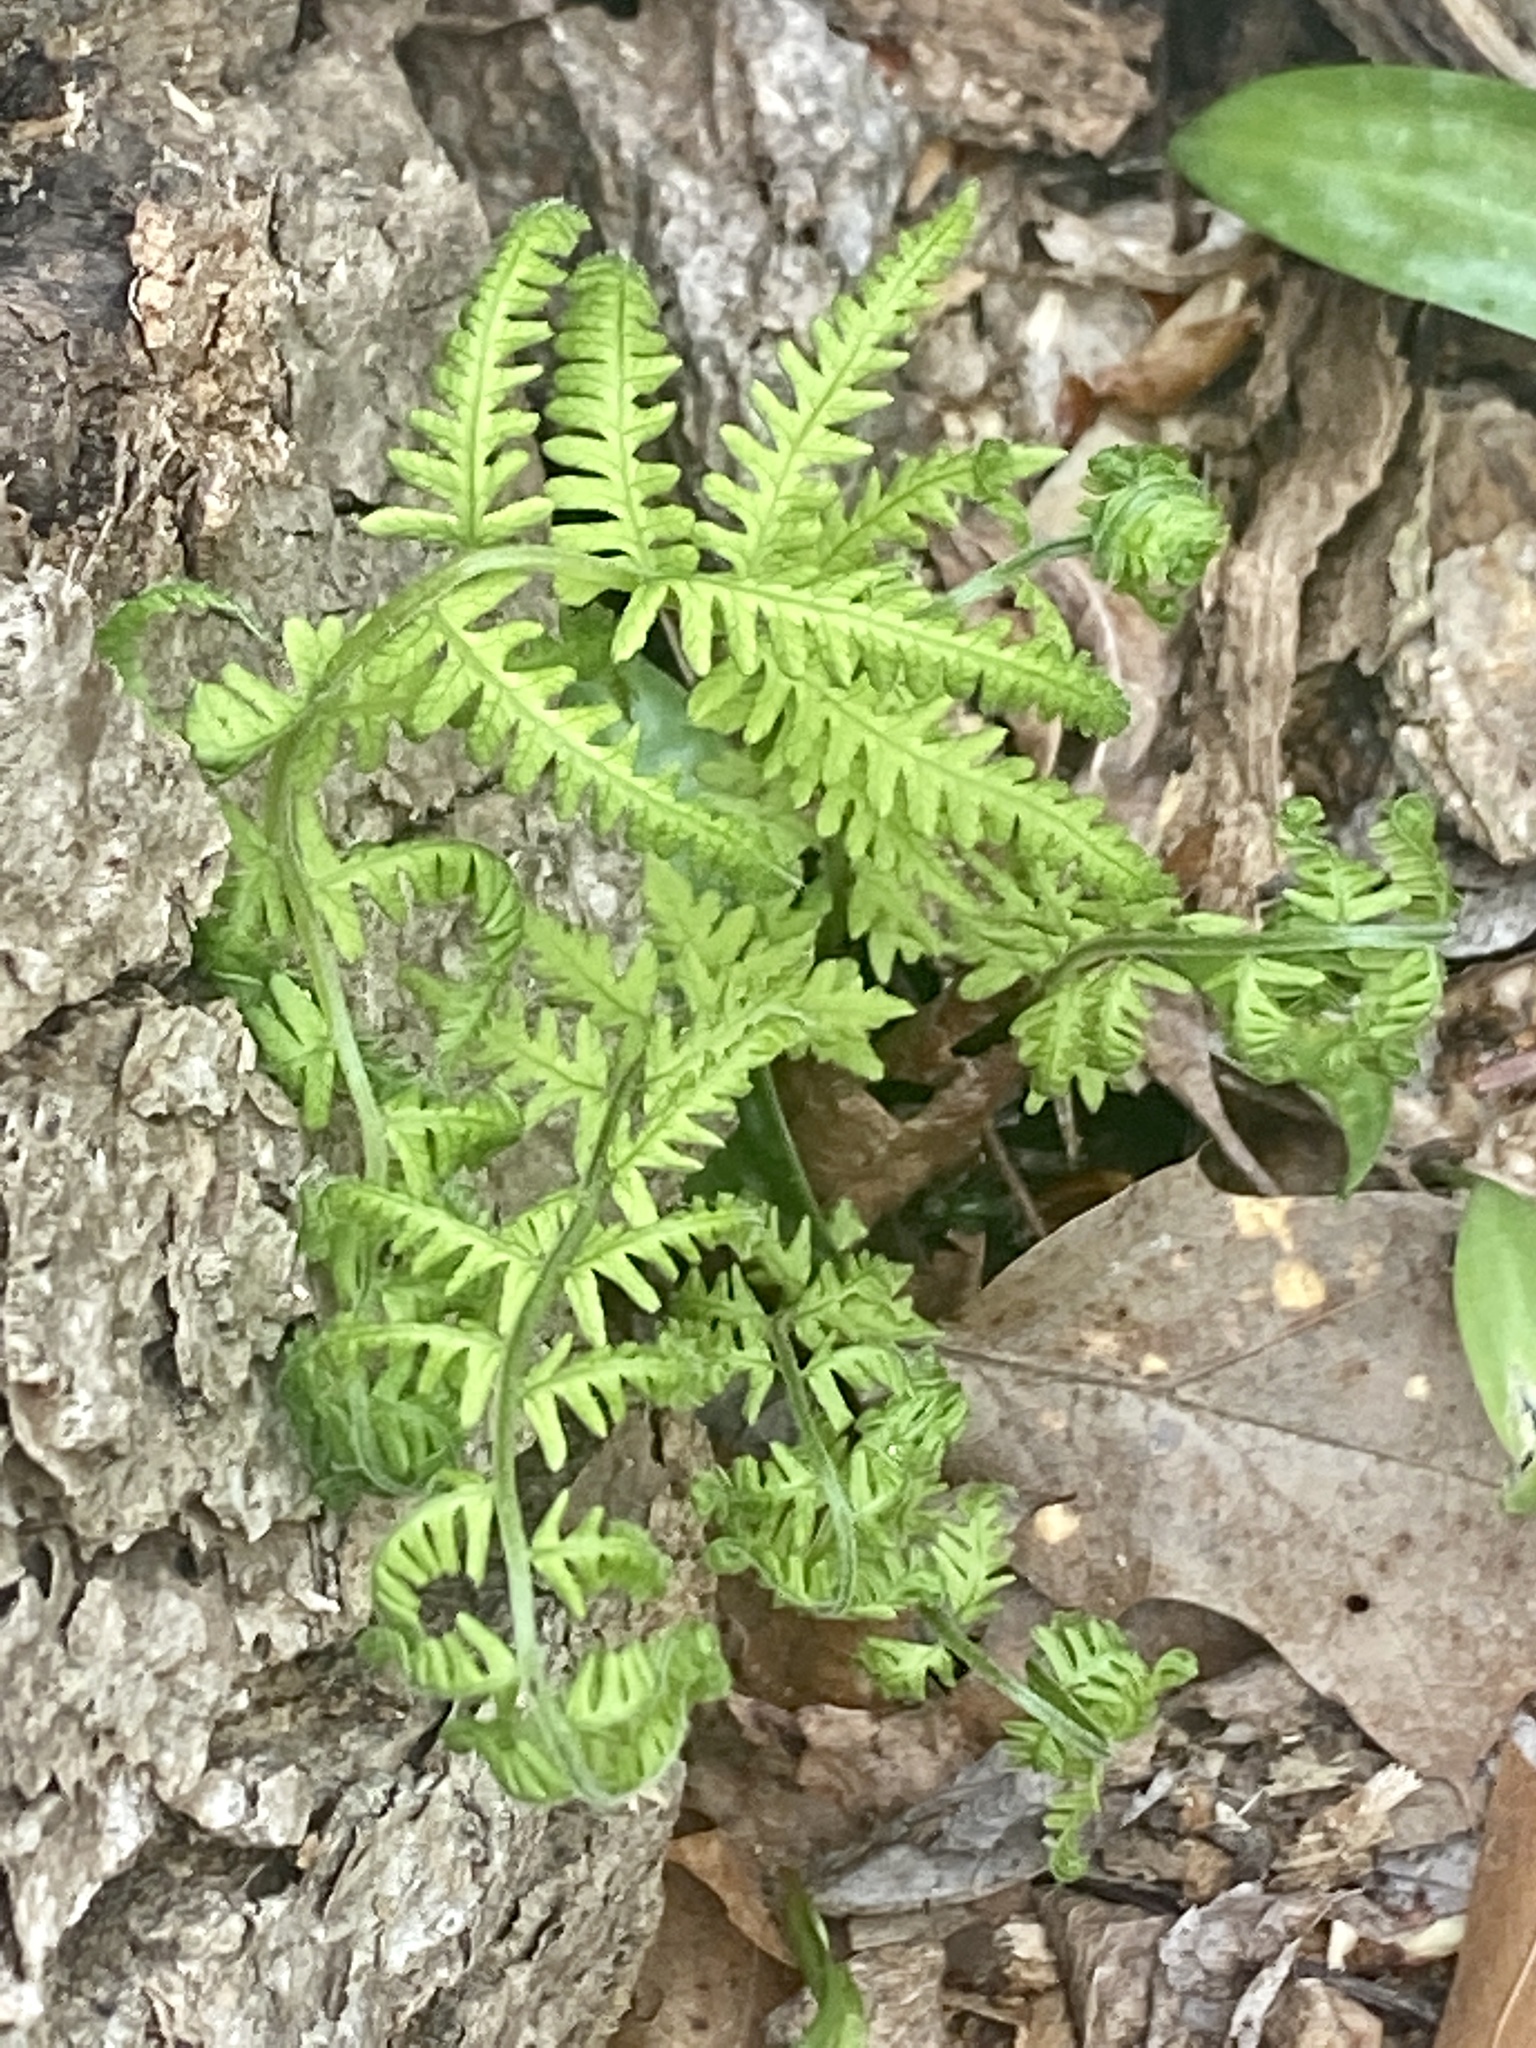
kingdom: Plantae
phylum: Tracheophyta
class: Polypodiopsida
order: Polypodiales
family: Thelypteridaceae
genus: Amauropelta
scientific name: Amauropelta noveboracensis
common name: New york fern
